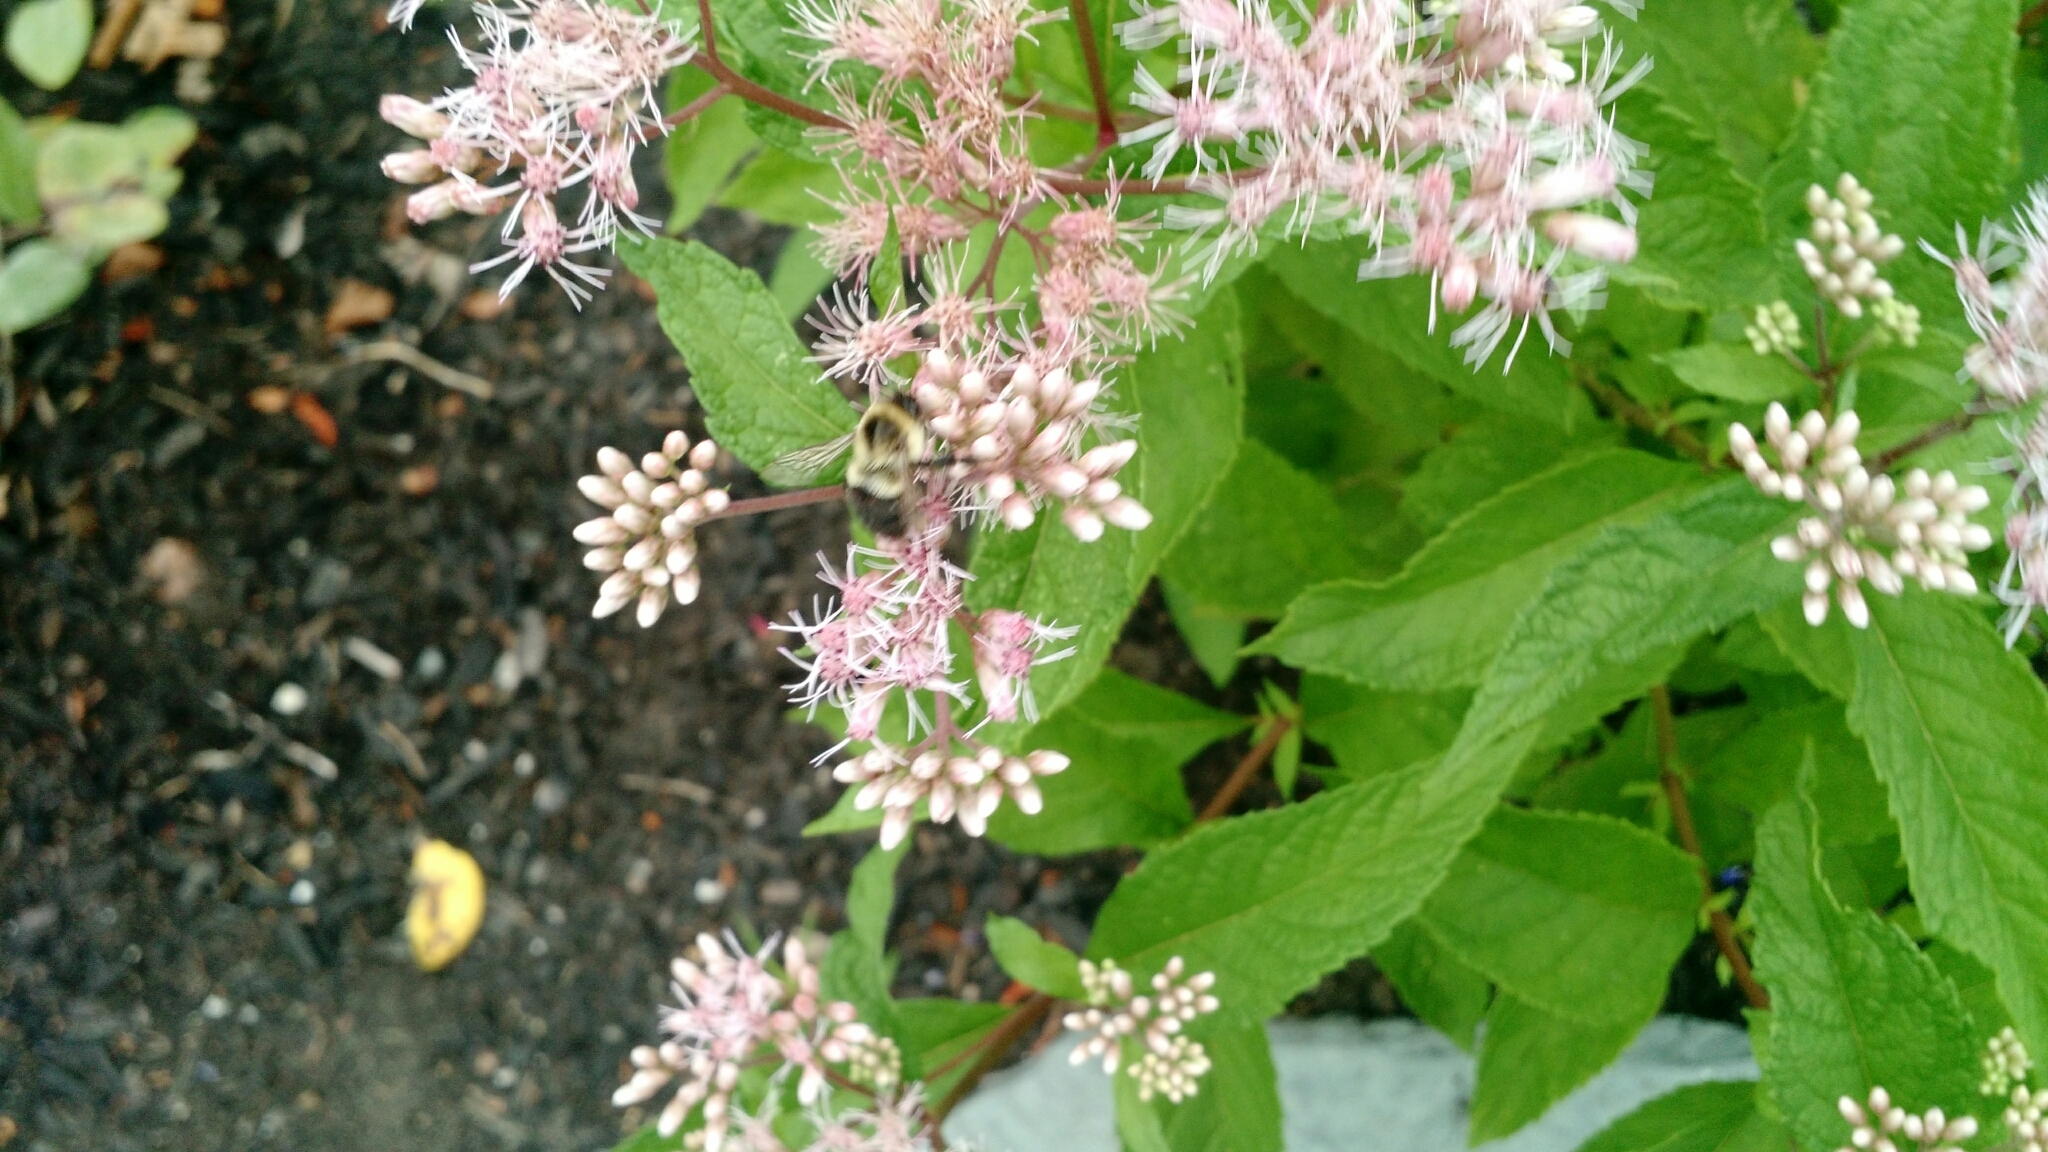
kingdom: Animalia
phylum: Arthropoda
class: Insecta
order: Hymenoptera
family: Apidae
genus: Bombus
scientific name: Bombus impatiens
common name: Common eastern bumble bee
